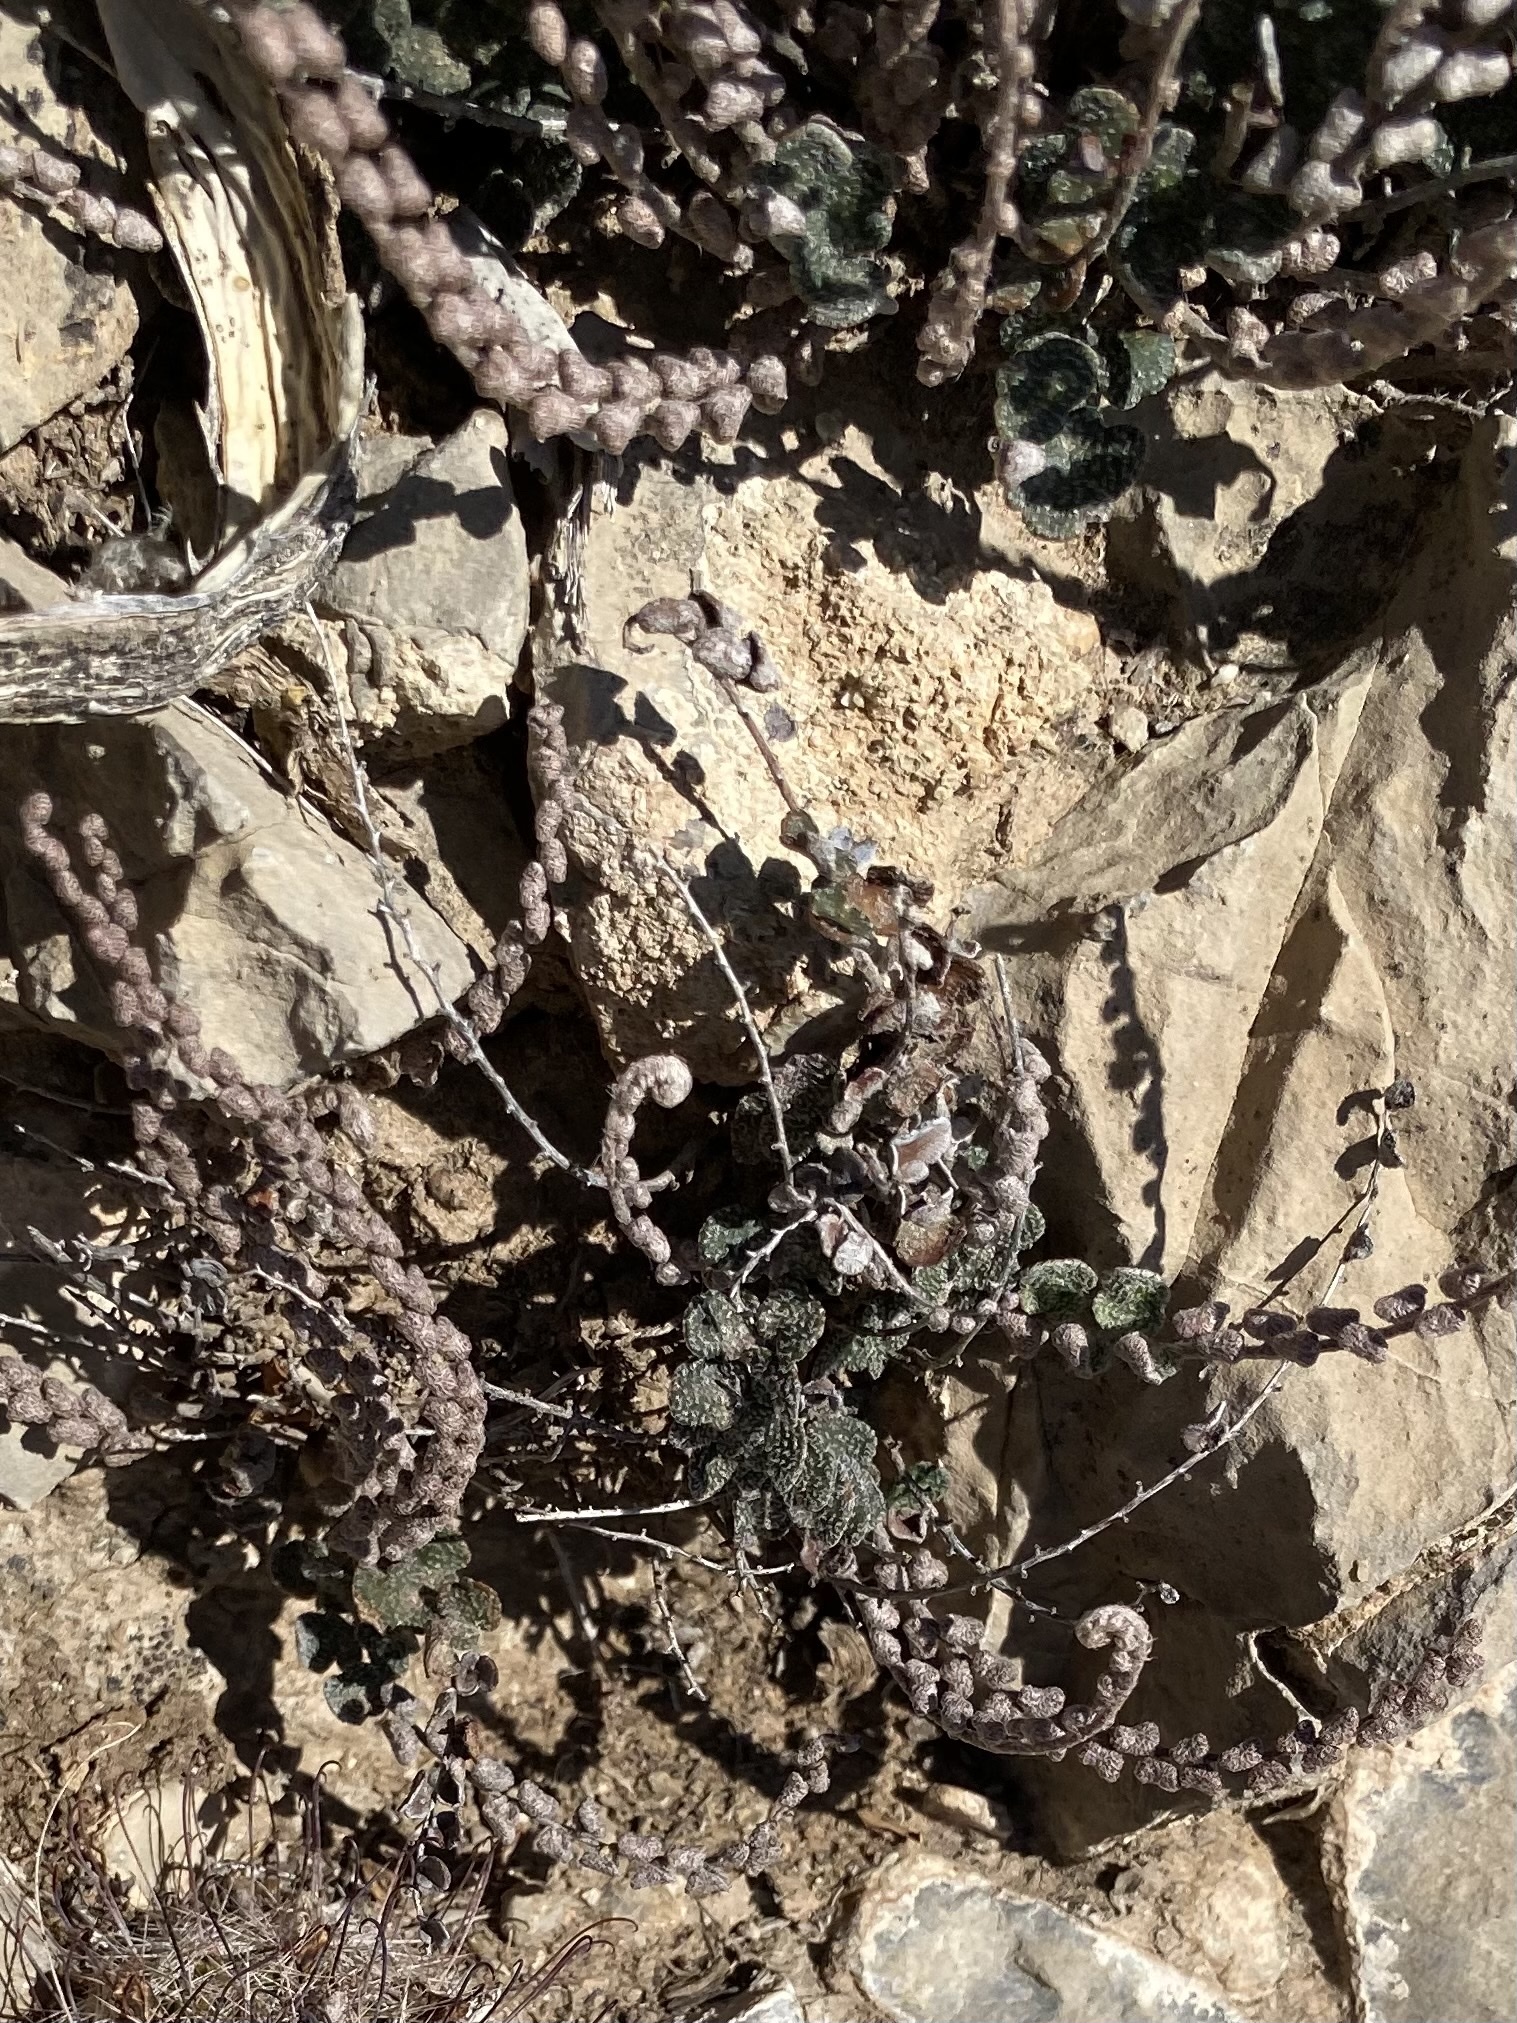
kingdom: Plantae
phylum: Tracheophyta
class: Polypodiopsida
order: Polypodiales
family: Pteridaceae
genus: Astrolepis
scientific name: Astrolepis cochisensis
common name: Scaly cloak fern
